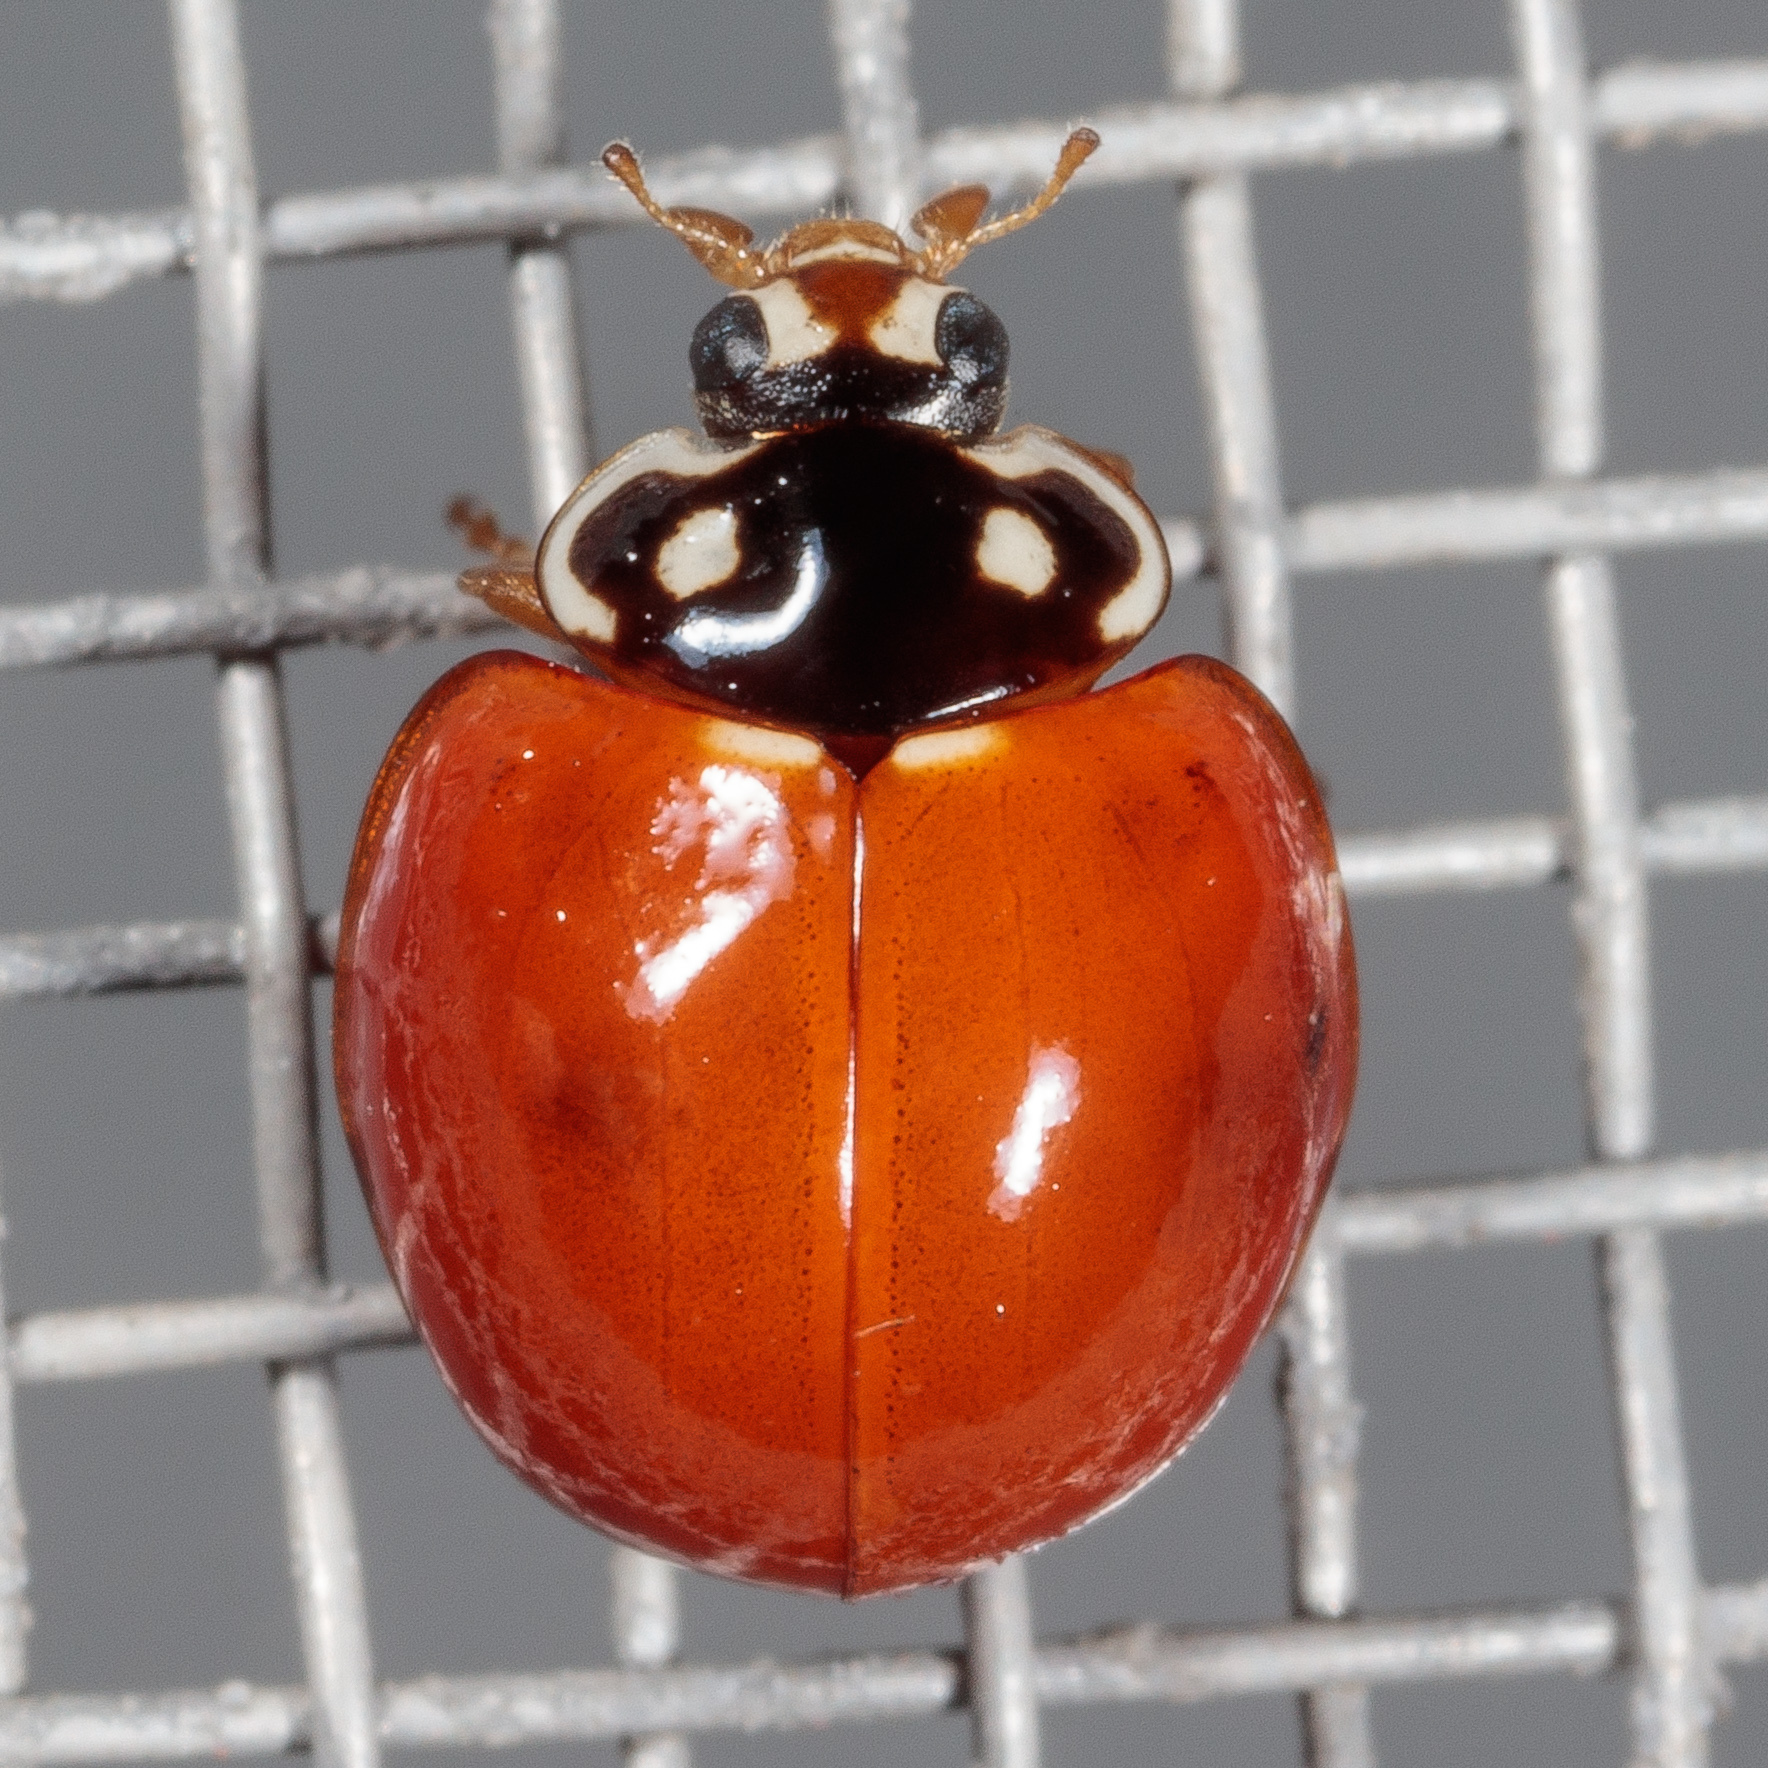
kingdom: Animalia
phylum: Arthropoda
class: Insecta
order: Coleoptera
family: Coccinellidae
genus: Cycloneda
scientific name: Cycloneda sanguinea
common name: Ladybird beetle
